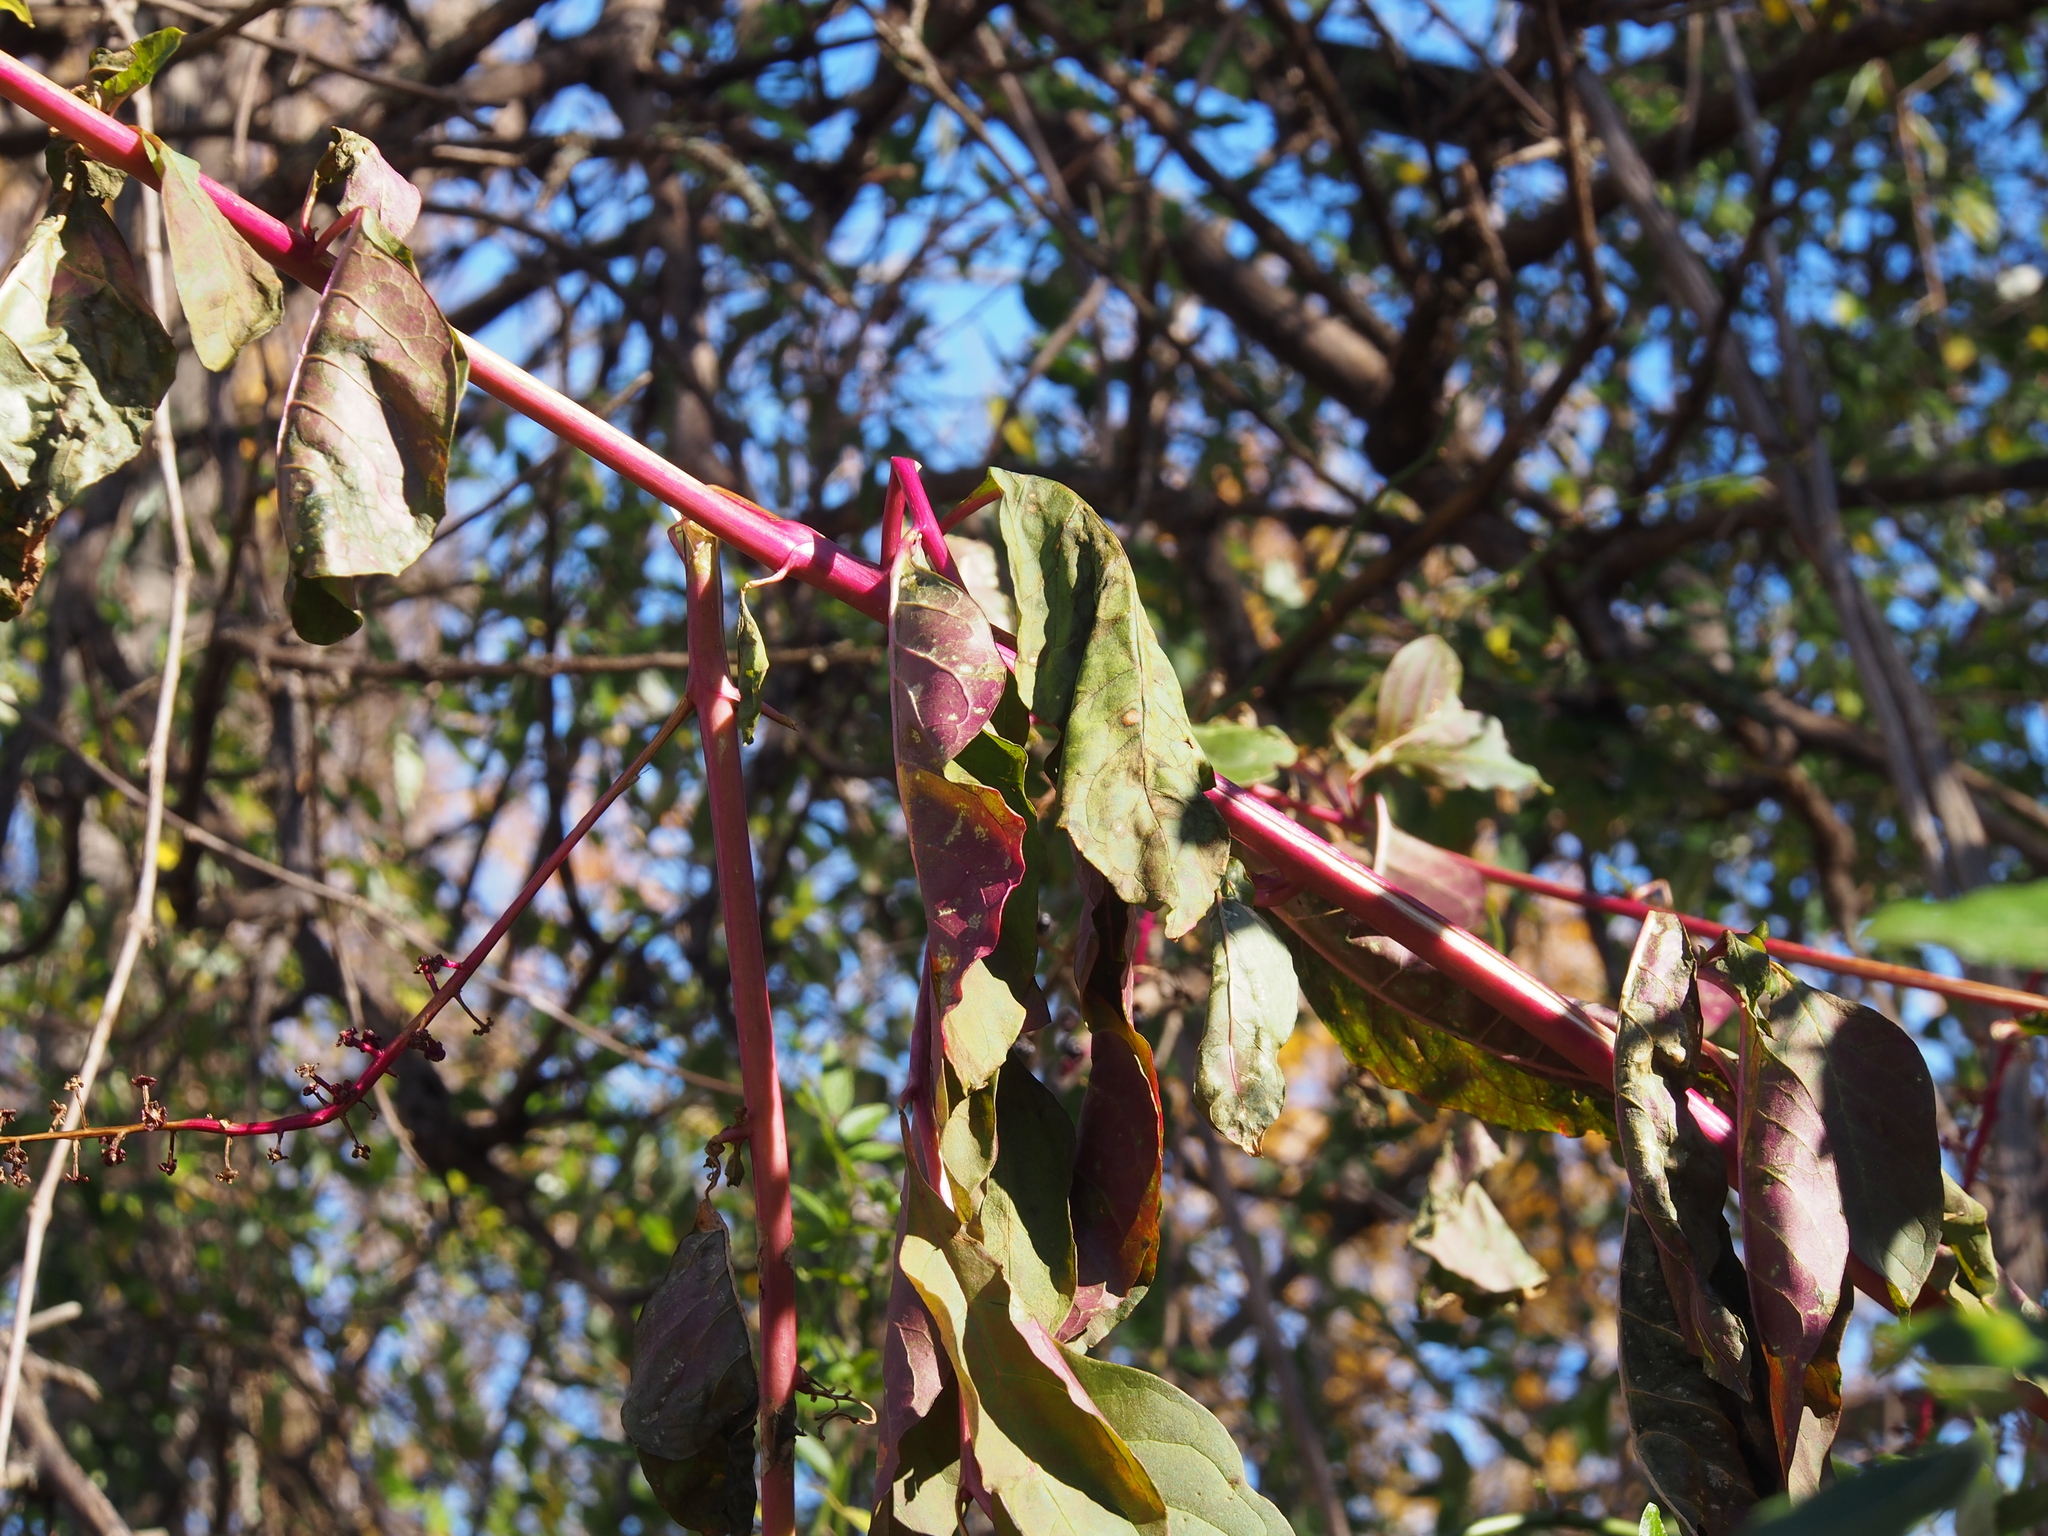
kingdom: Plantae
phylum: Tracheophyta
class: Magnoliopsida
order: Caryophyllales
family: Phytolaccaceae
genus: Phytolacca
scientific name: Phytolacca americana
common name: American pokeweed
